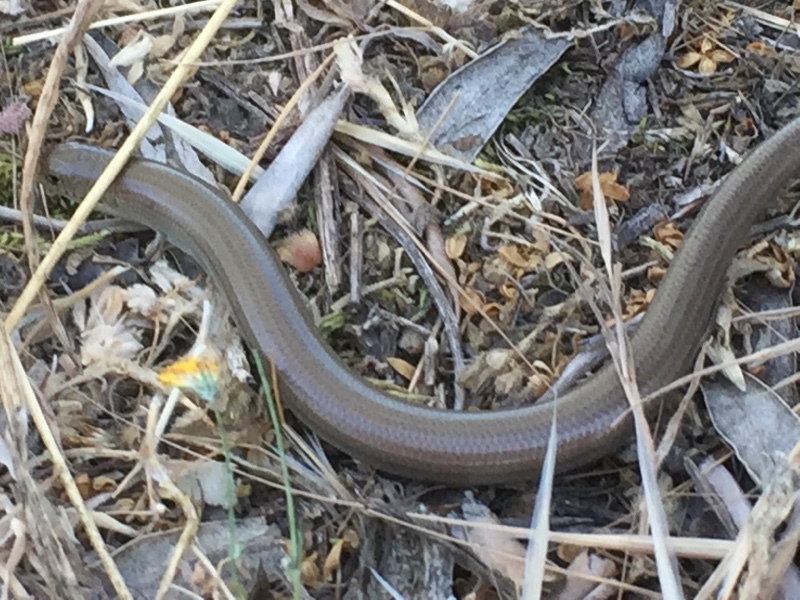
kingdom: Animalia
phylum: Chordata
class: Squamata
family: Scincidae
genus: Chalcides
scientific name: Chalcides striatus
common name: Western (or iberian) three-toed skink
